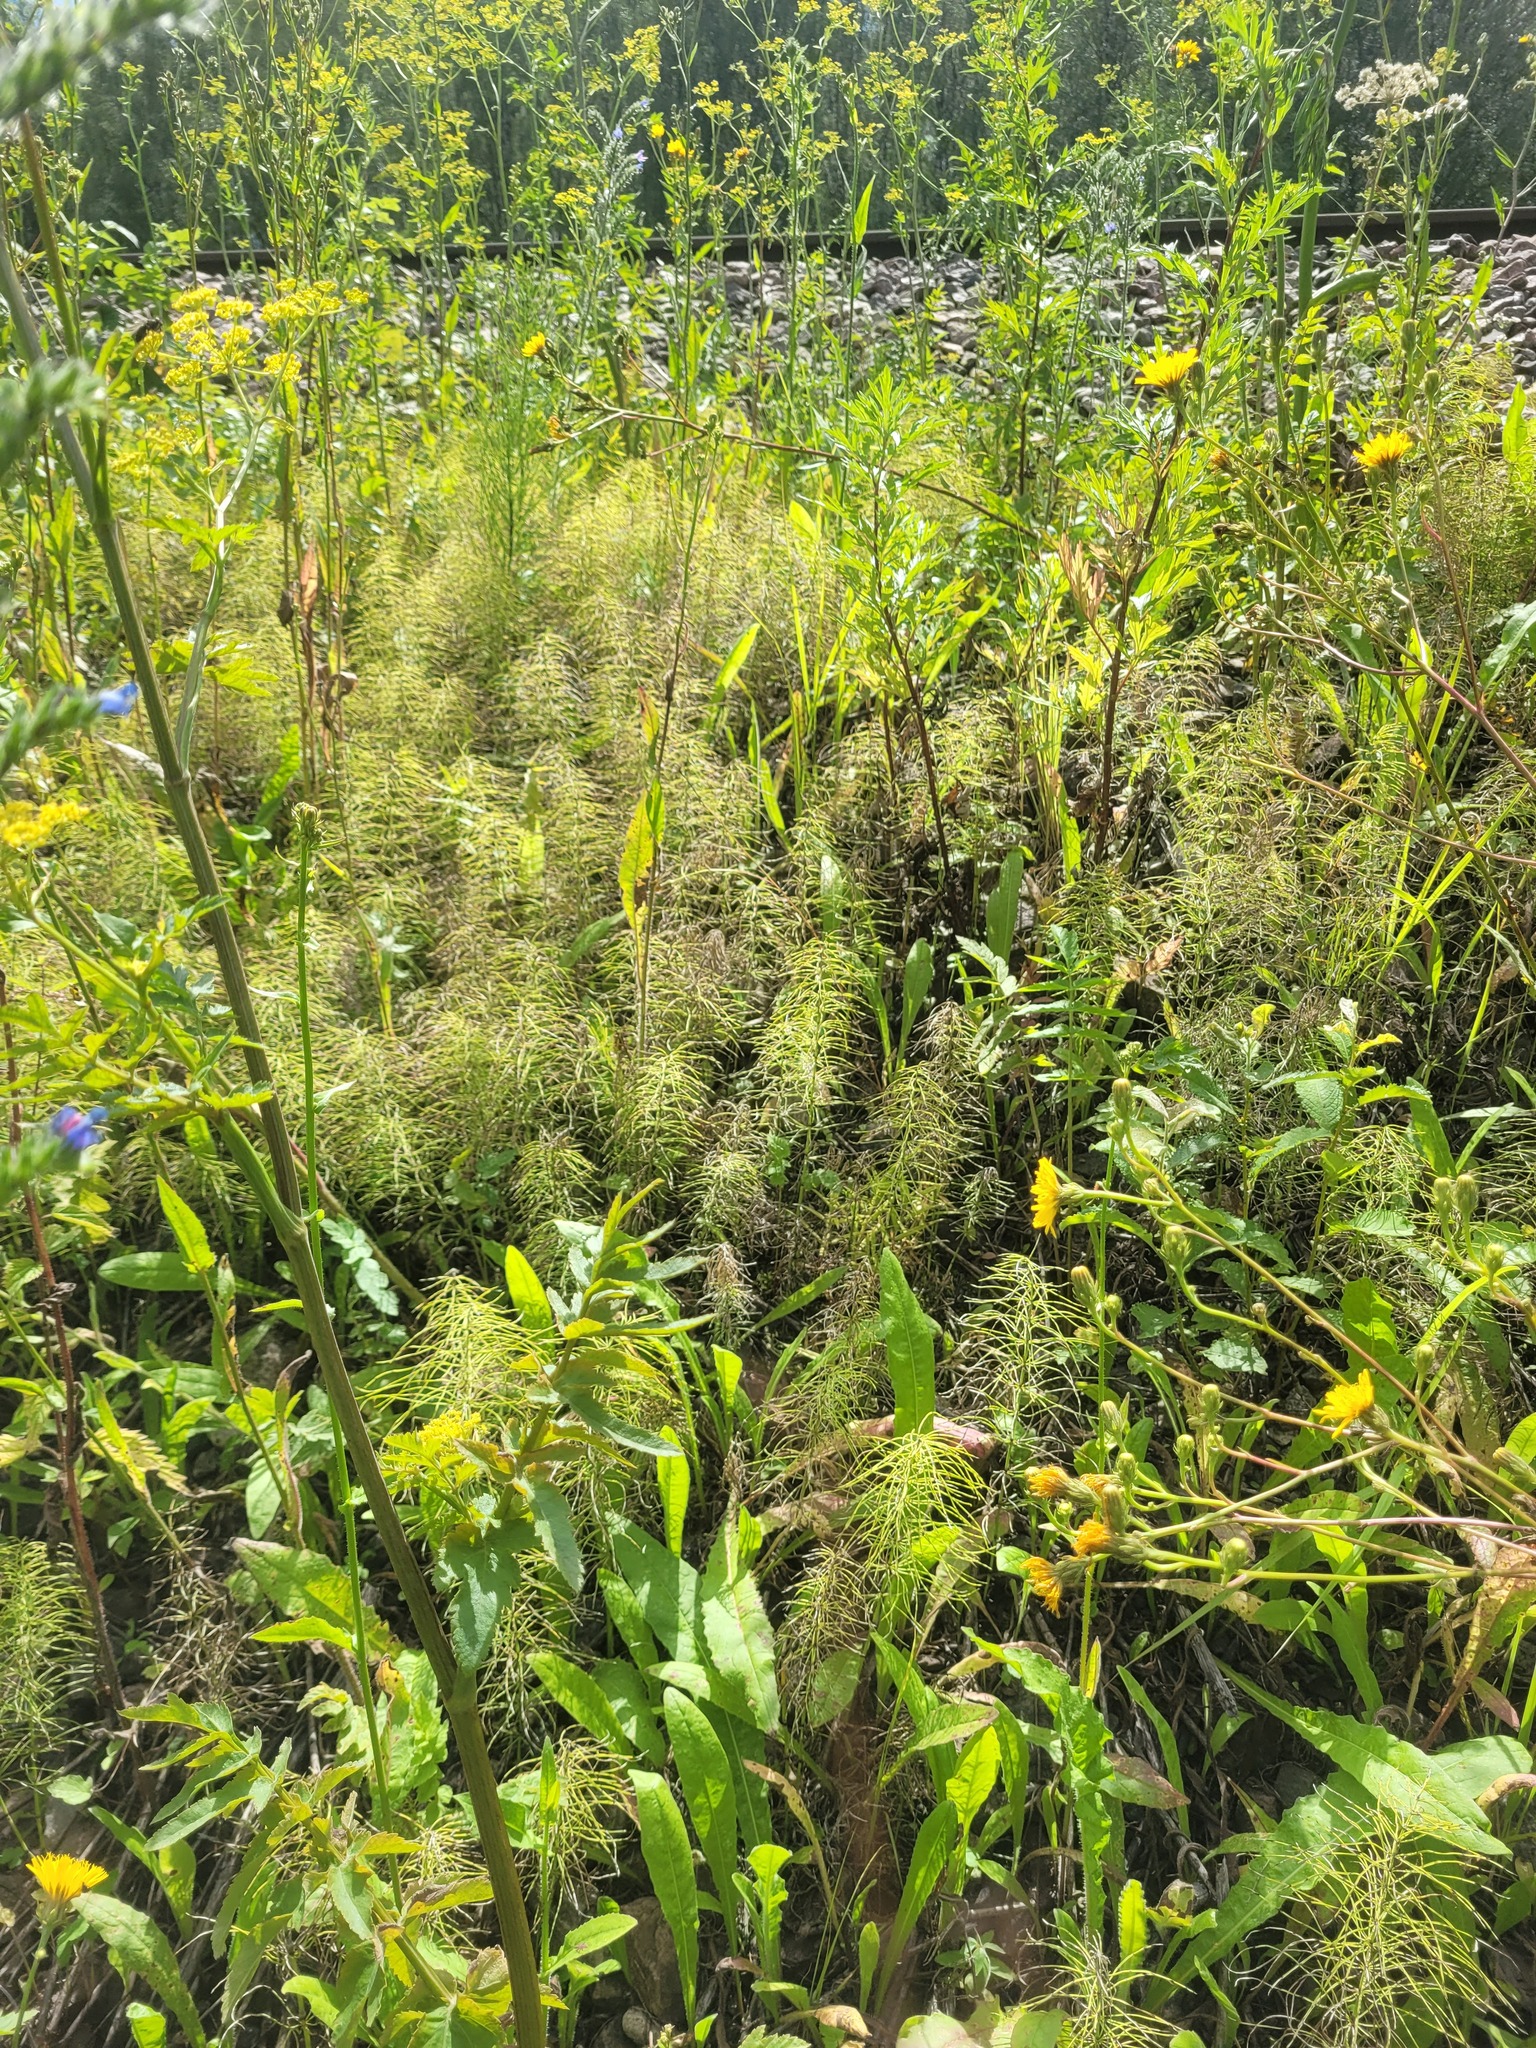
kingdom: Plantae
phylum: Tracheophyta
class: Polypodiopsida
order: Equisetales
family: Equisetaceae
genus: Equisetum
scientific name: Equisetum pratense
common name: Meadow horsetail
